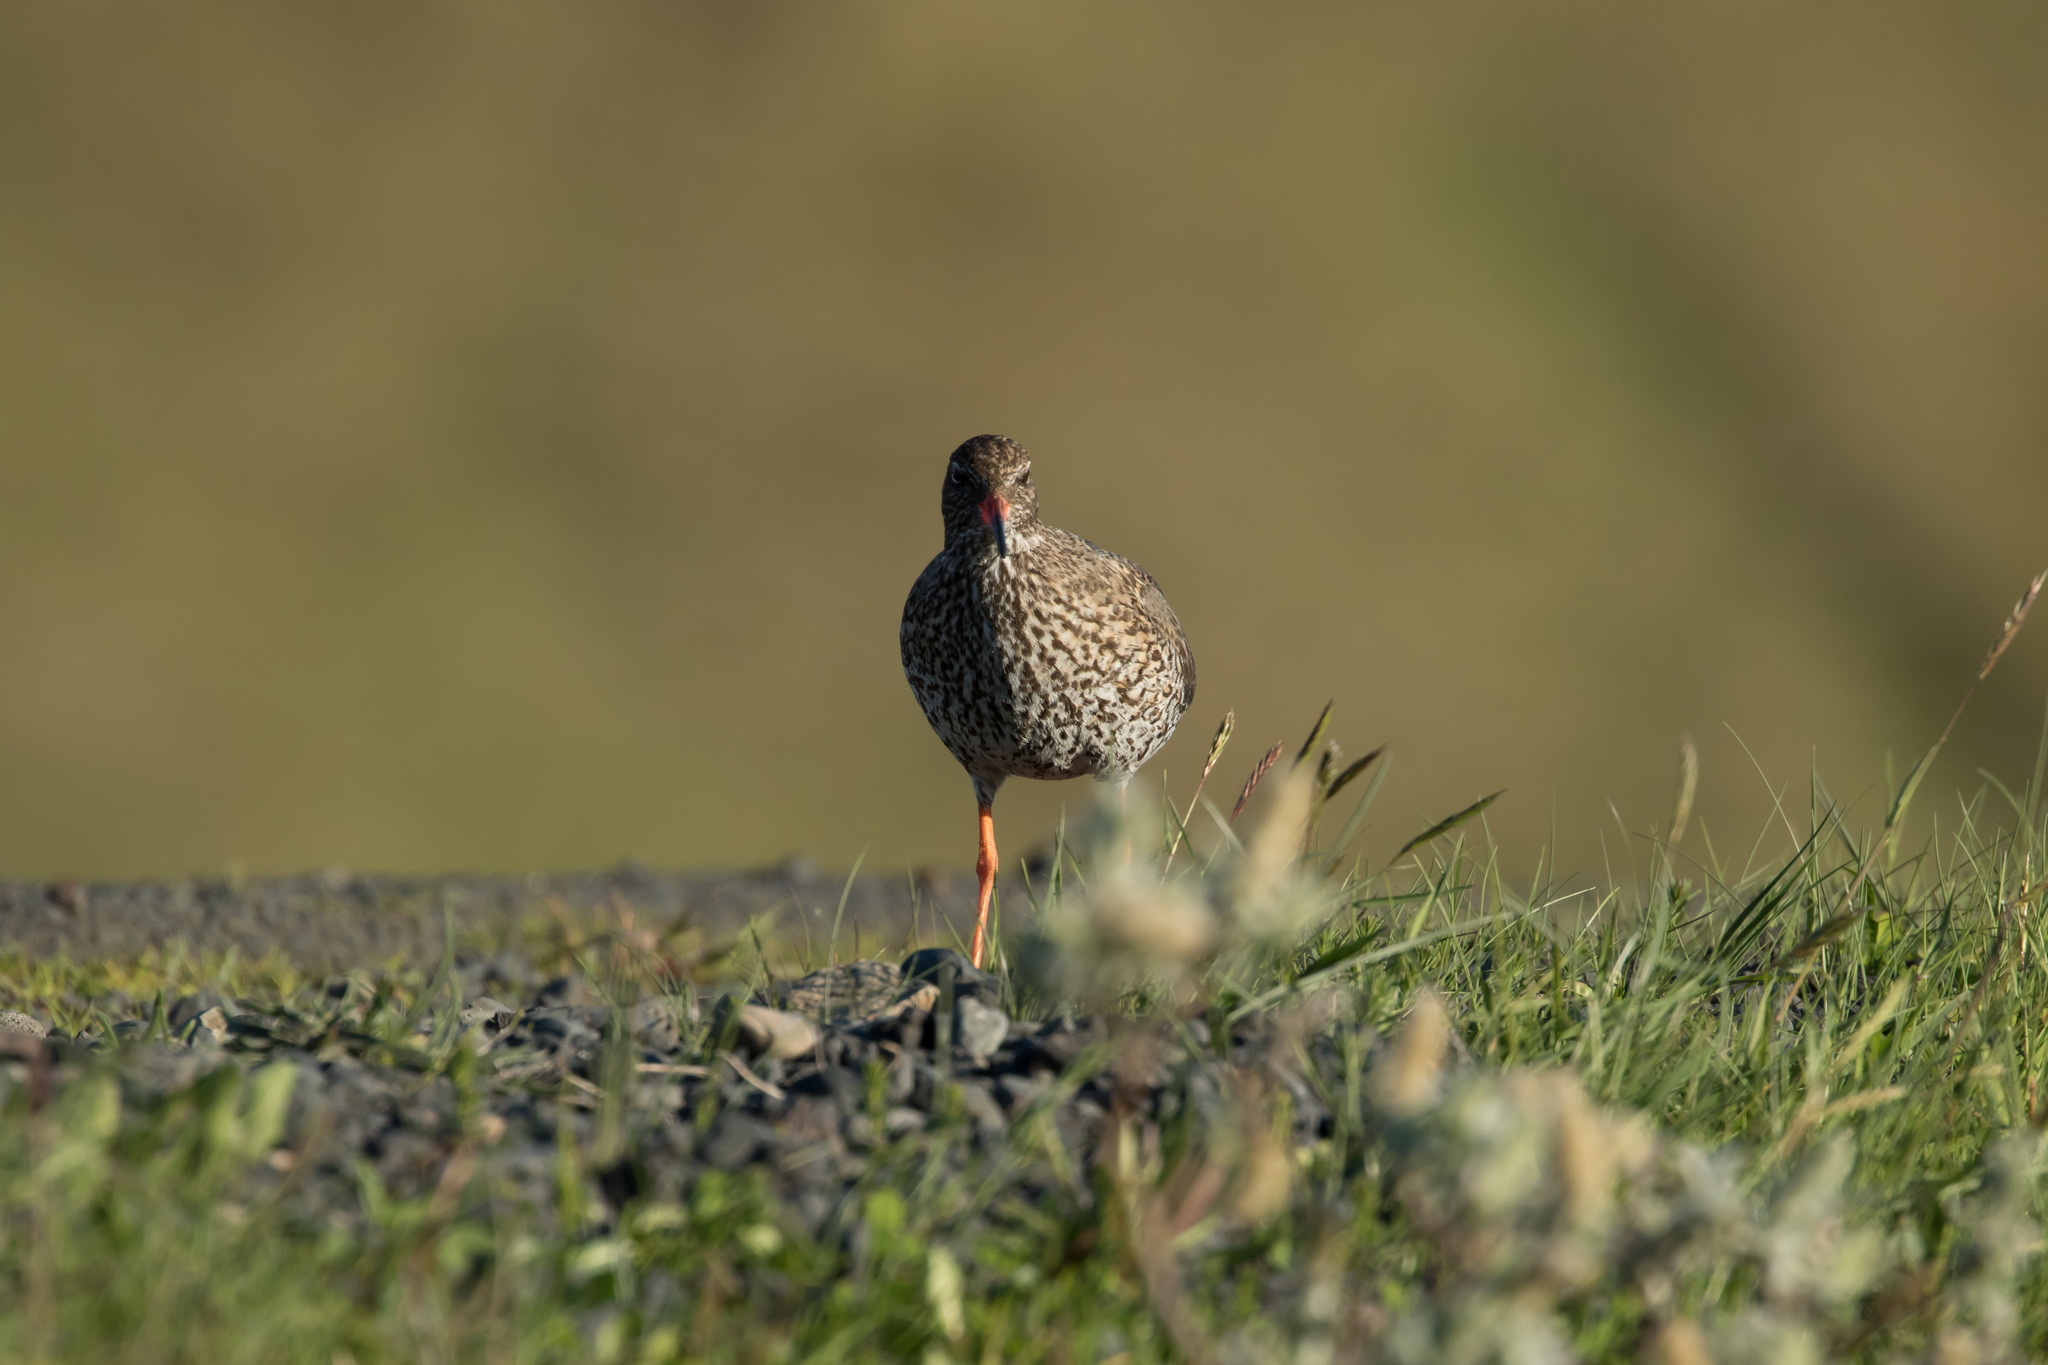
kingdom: Animalia
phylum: Chordata
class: Aves
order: Charadriiformes
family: Scolopacidae
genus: Tringa
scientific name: Tringa totanus
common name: Common redshank
